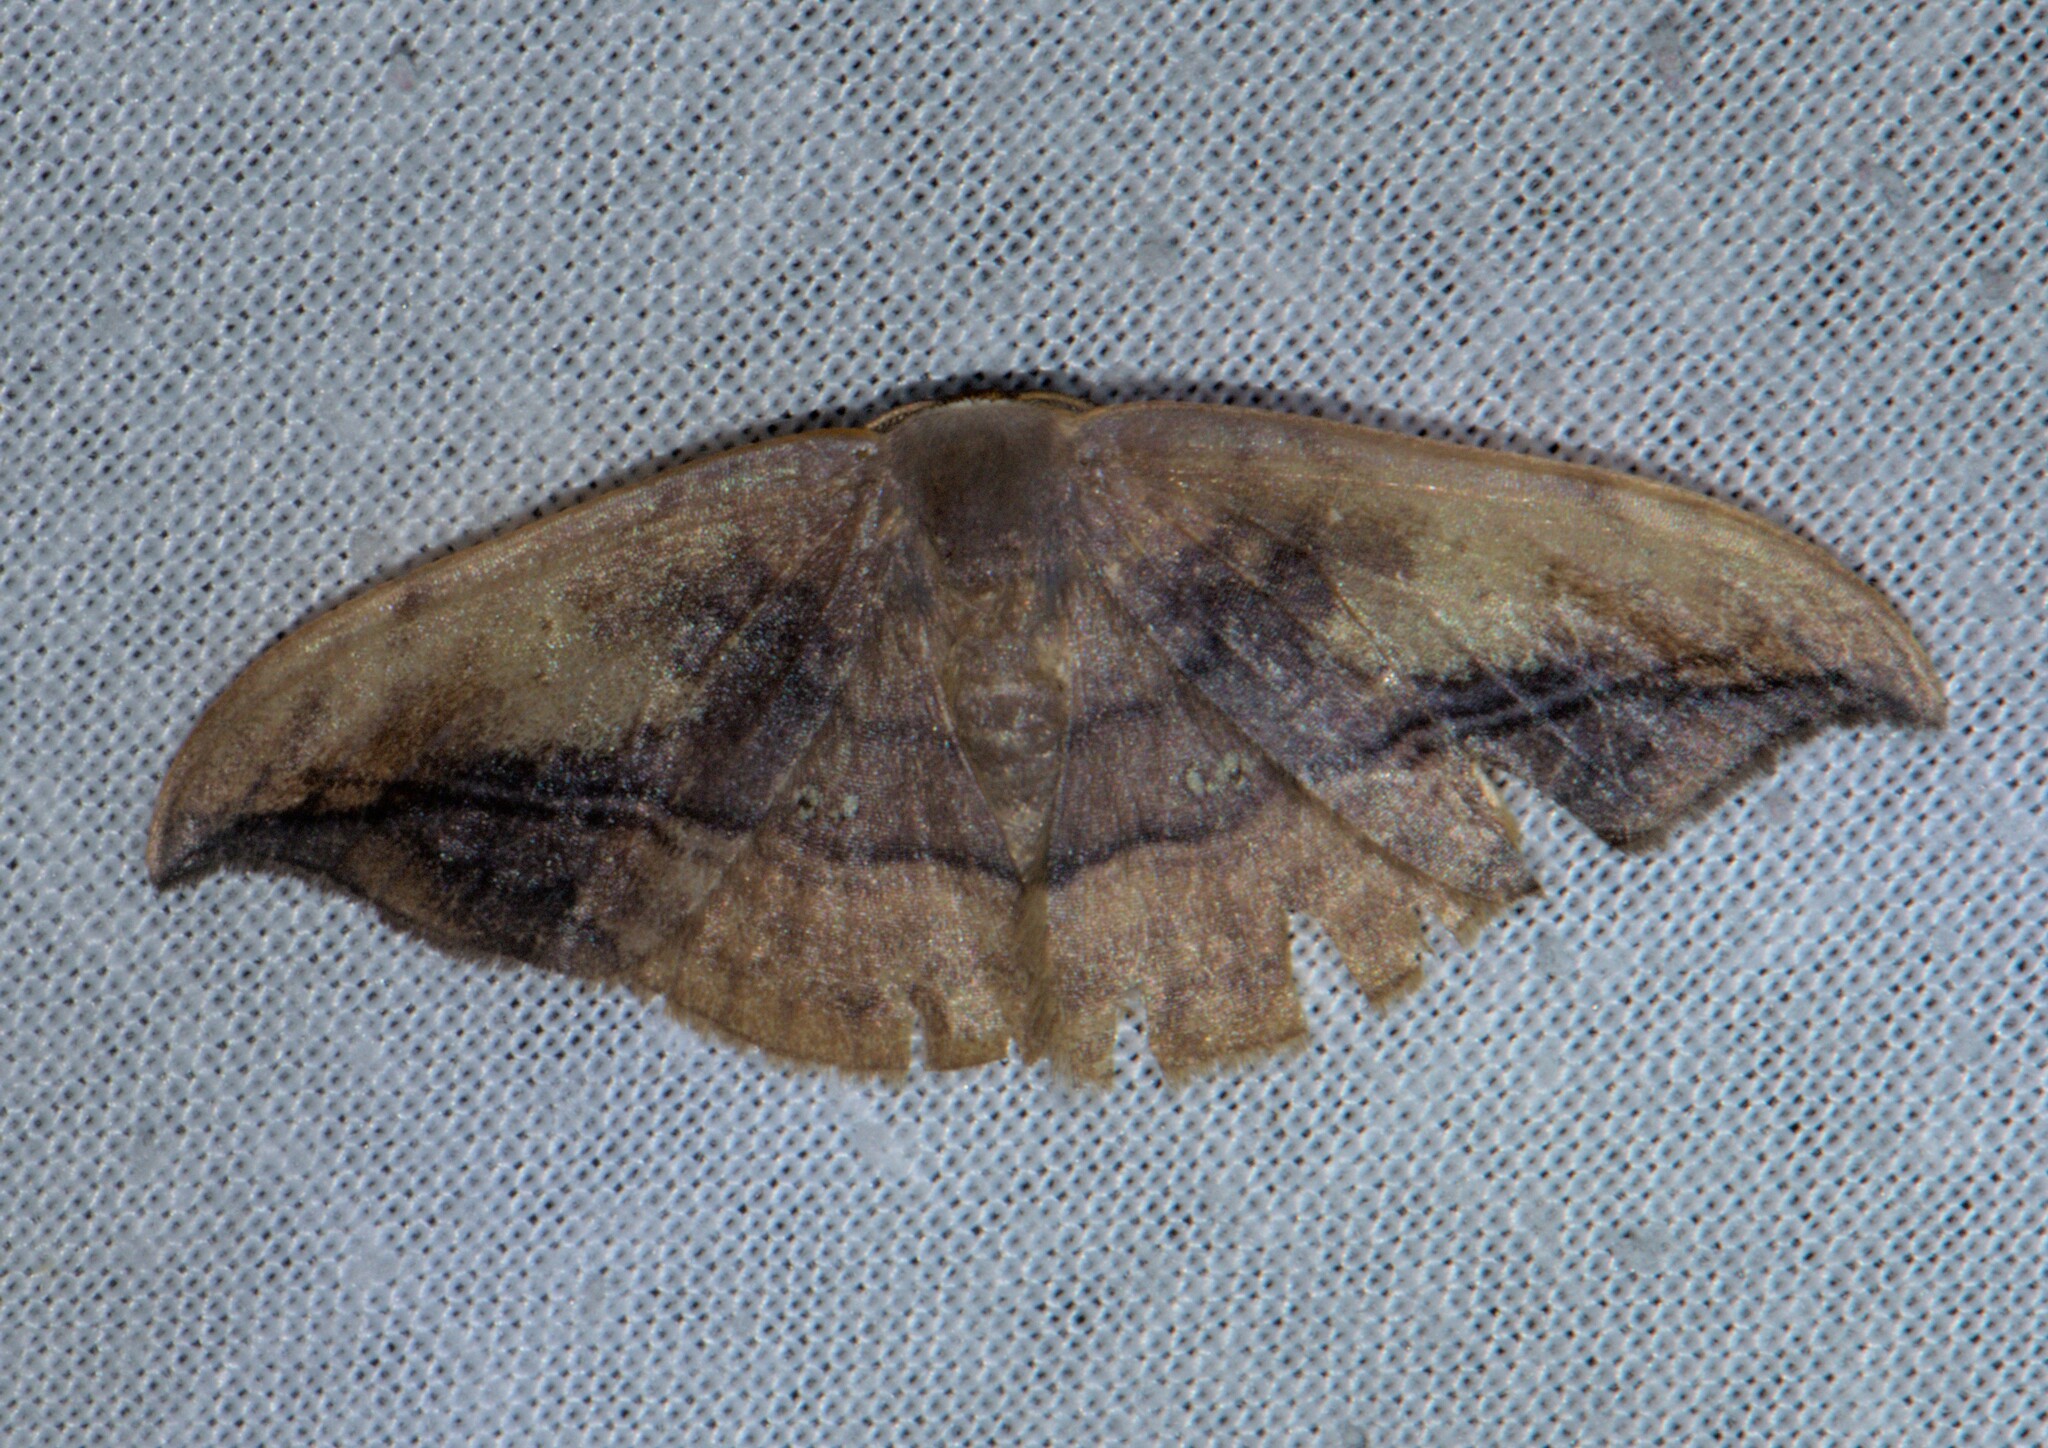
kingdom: Animalia
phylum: Arthropoda
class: Insecta
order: Lepidoptera
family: Drepanidae
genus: Agnidra
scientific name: Agnidra vinacea
